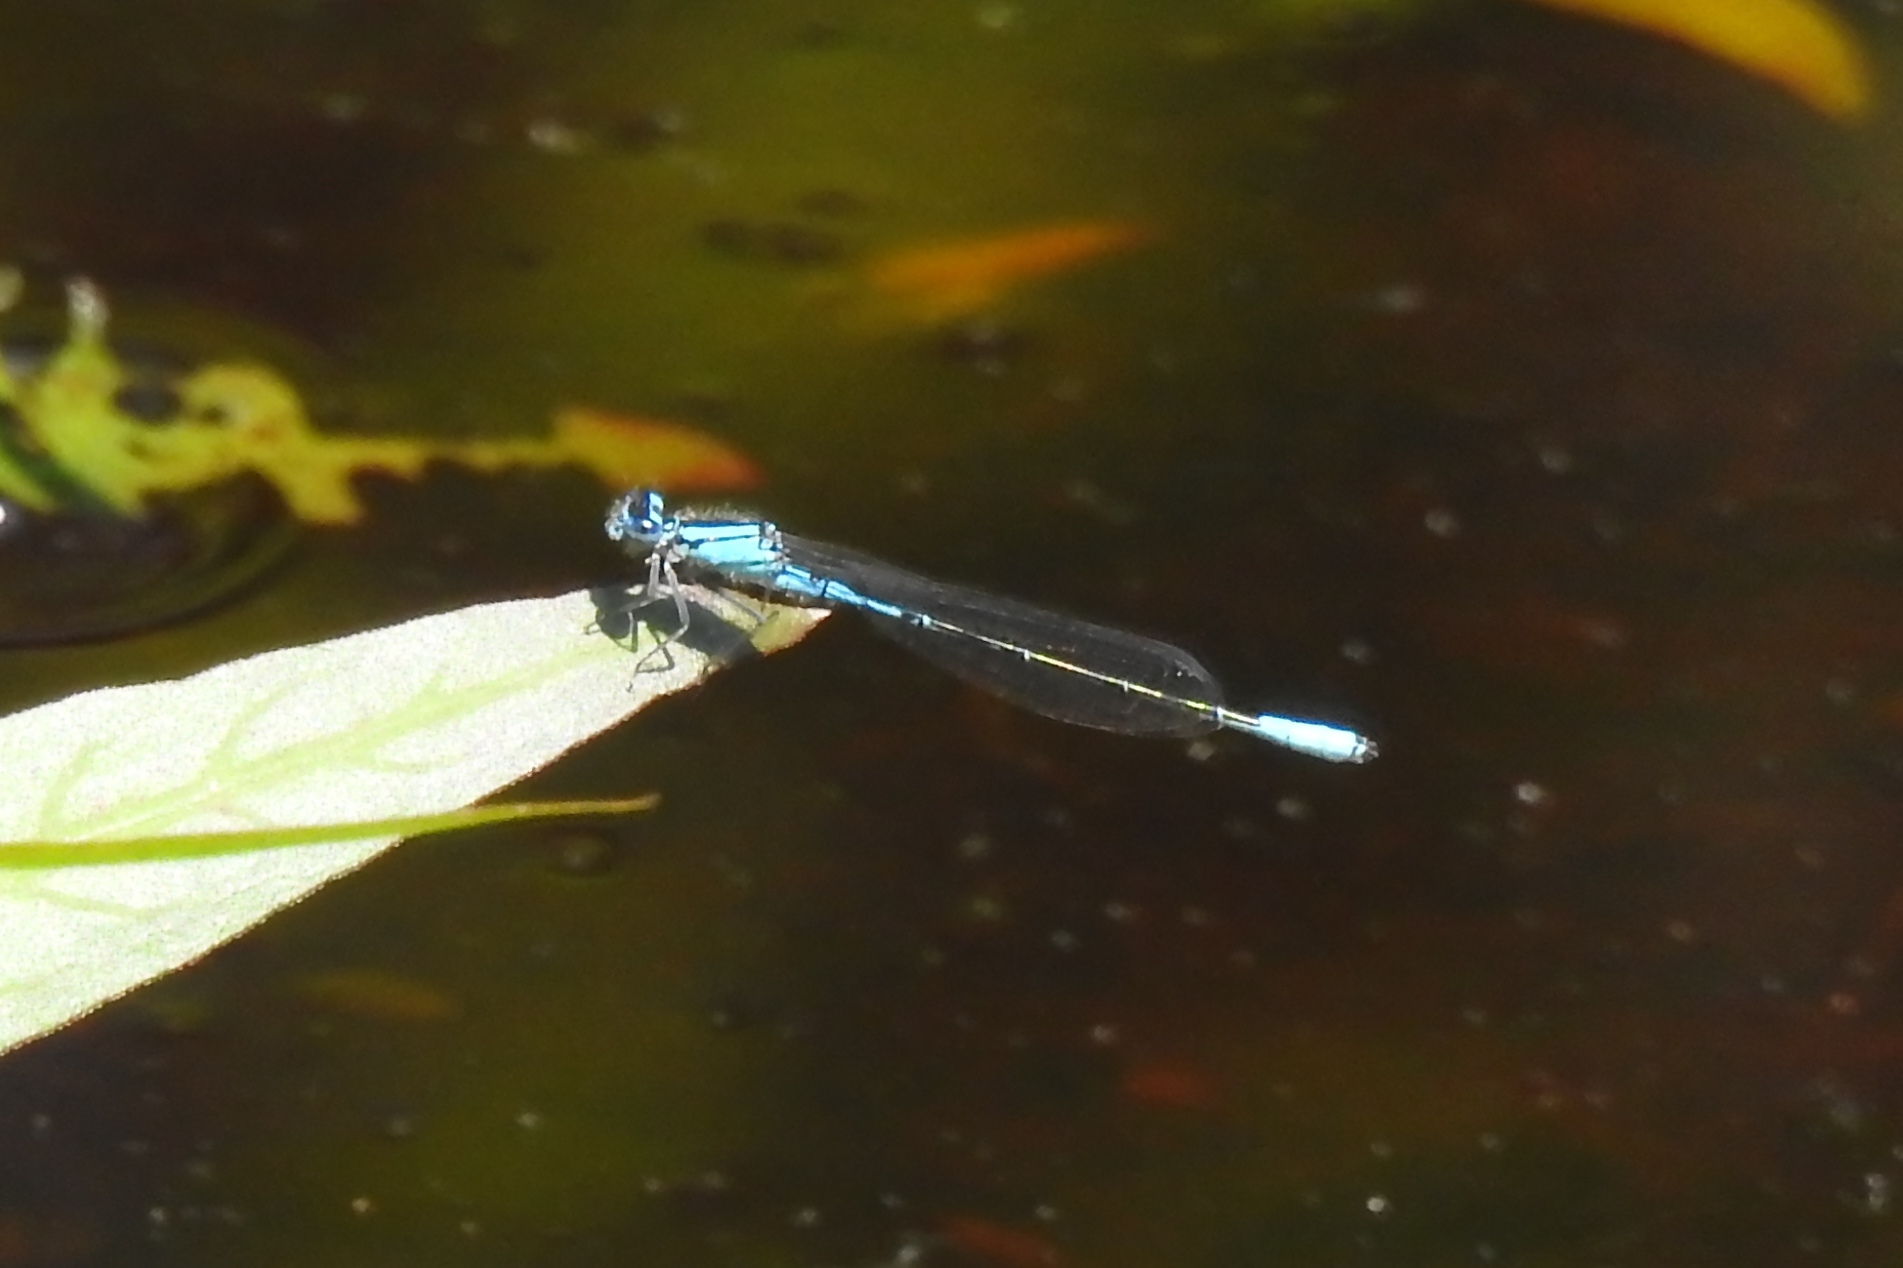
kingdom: Animalia
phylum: Arthropoda
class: Insecta
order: Odonata
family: Coenagrionidae
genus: Enallagma
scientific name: Enallagma aspersum
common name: Azure bluet
